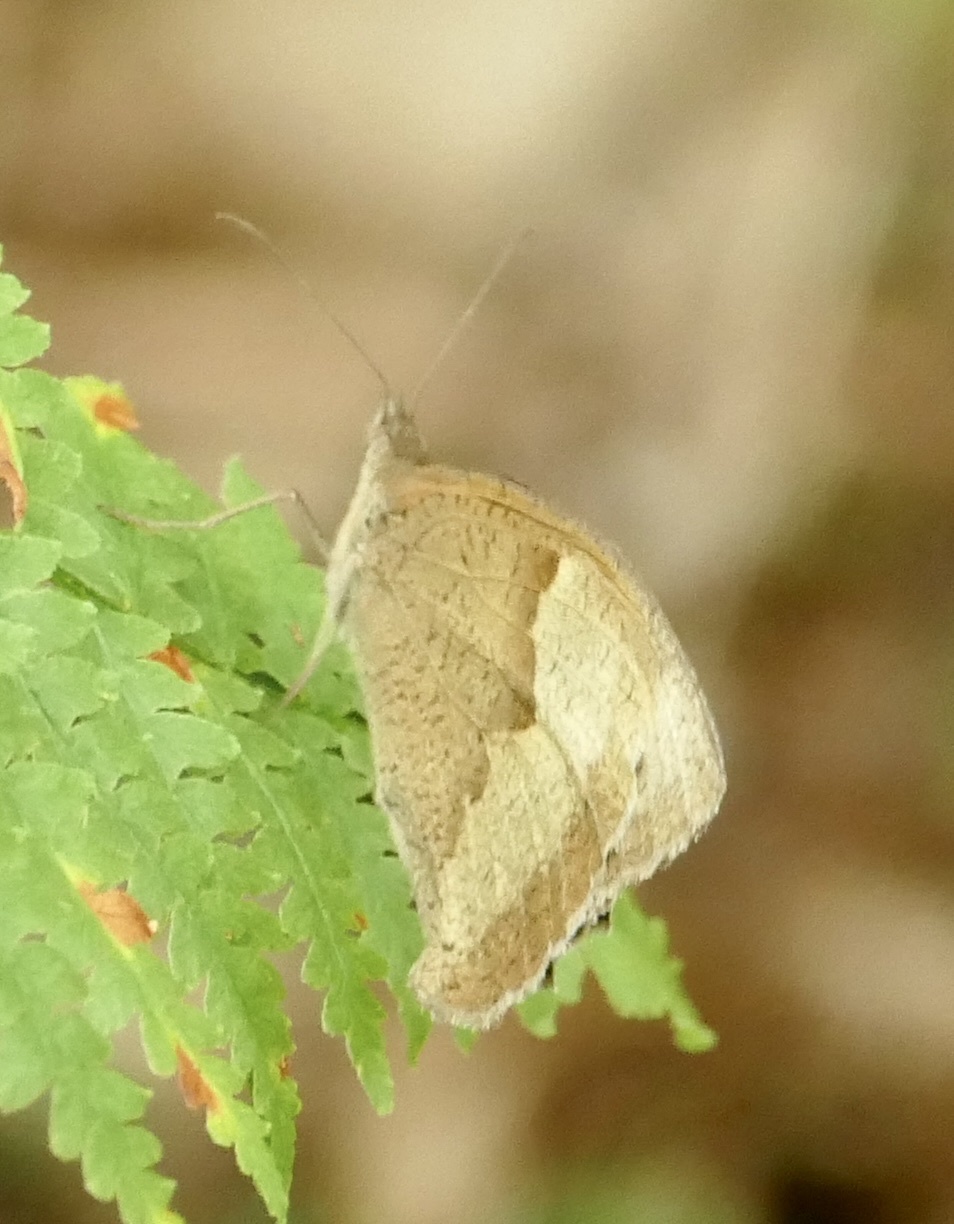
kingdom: Animalia
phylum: Arthropoda
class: Insecta
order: Lepidoptera
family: Nymphalidae
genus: Maniola
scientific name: Maniola jurtina
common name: Meadow brown
